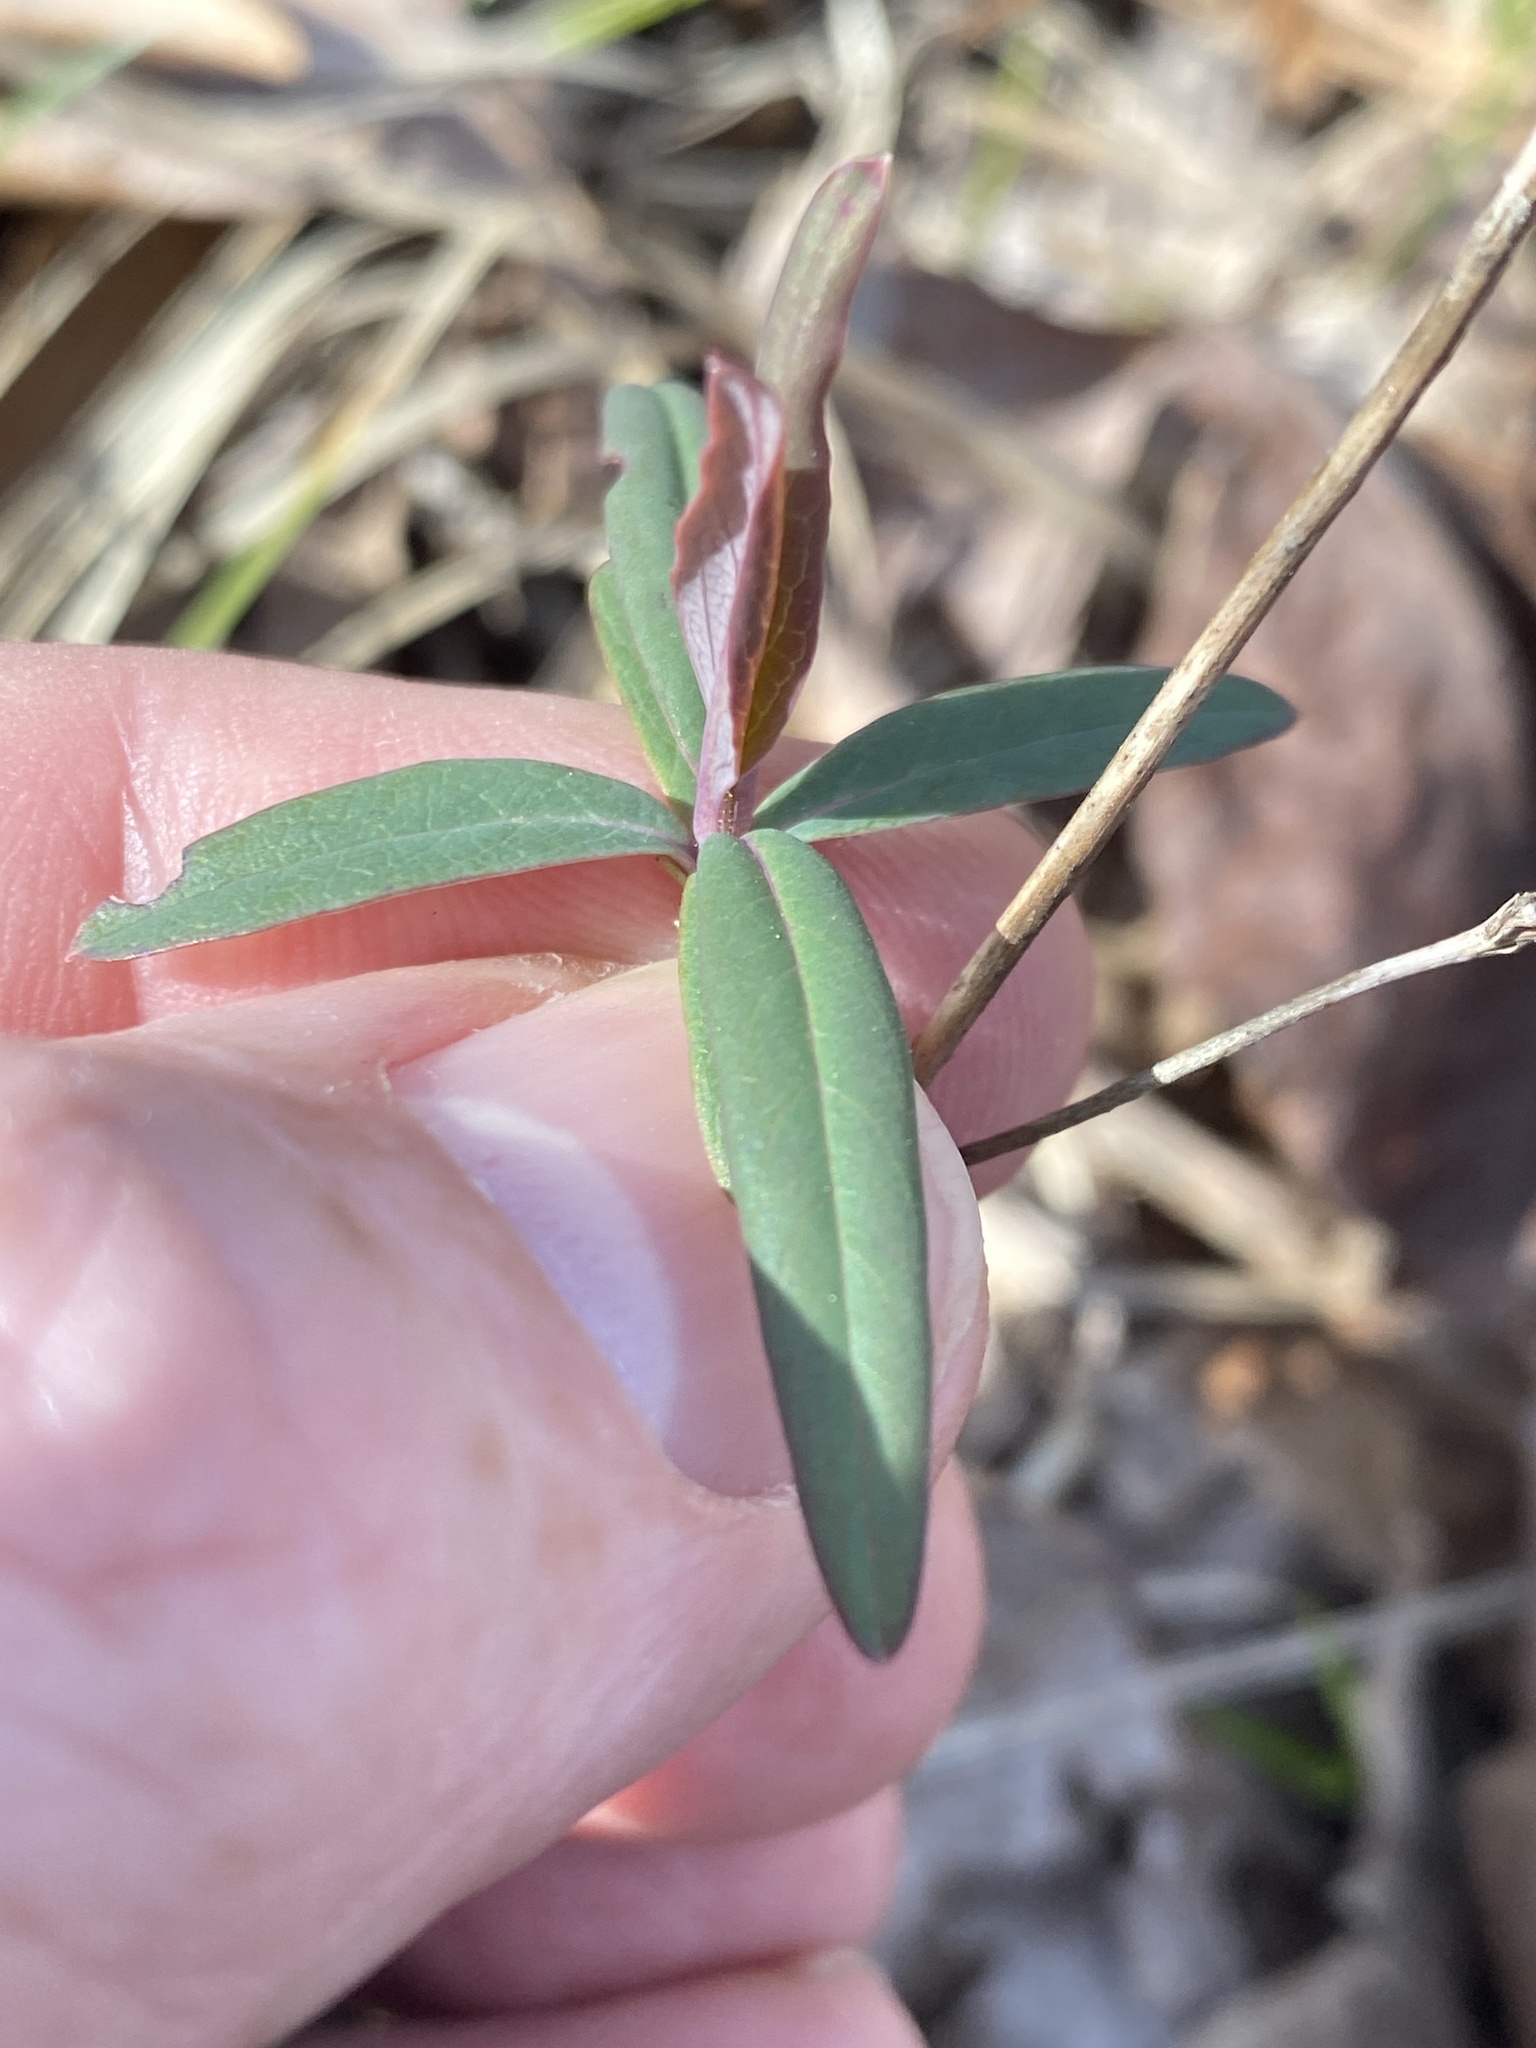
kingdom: Plantae
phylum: Tracheophyta
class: Magnoliopsida
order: Dipsacales
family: Caprifoliaceae
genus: Lonicera
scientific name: Lonicera sempervirens
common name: Coral honeysuckle
